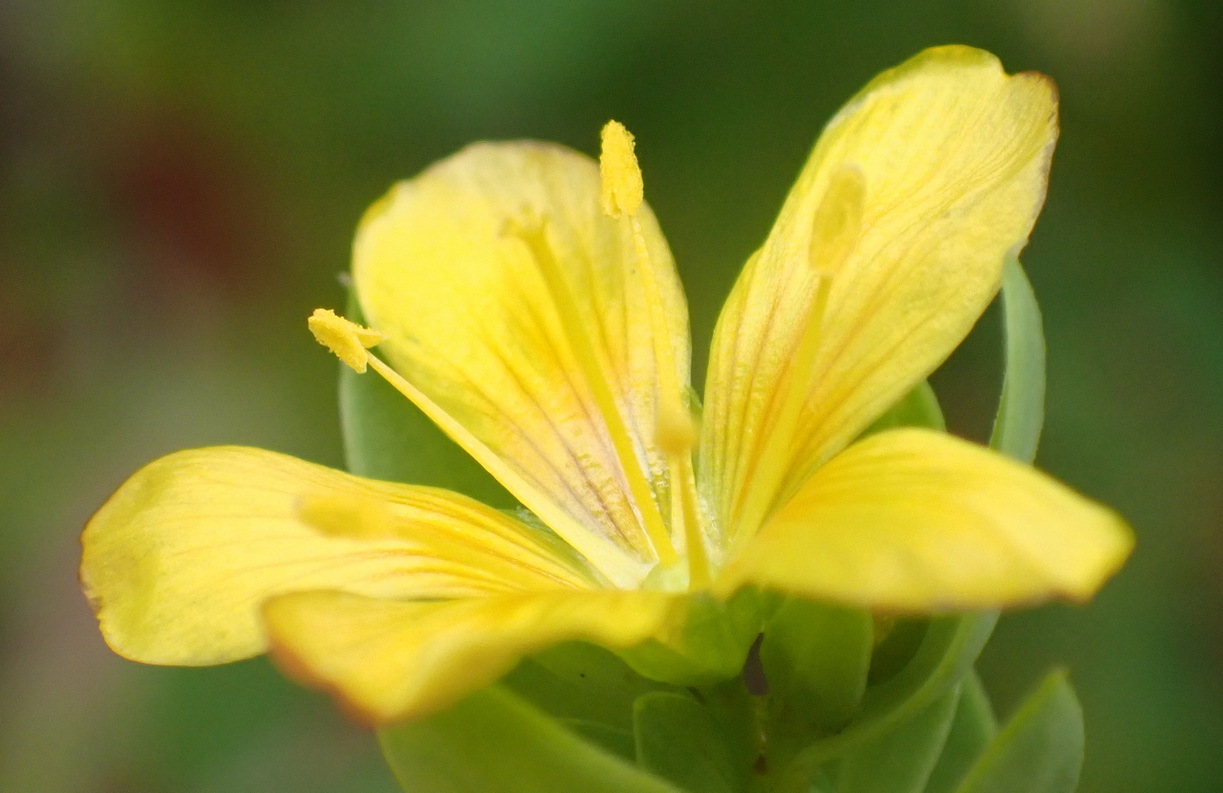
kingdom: Plantae
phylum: Tracheophyta
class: Magnoliopsida
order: Malpighiales
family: Linaceae
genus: Linum
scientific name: Linum aethiopicum
